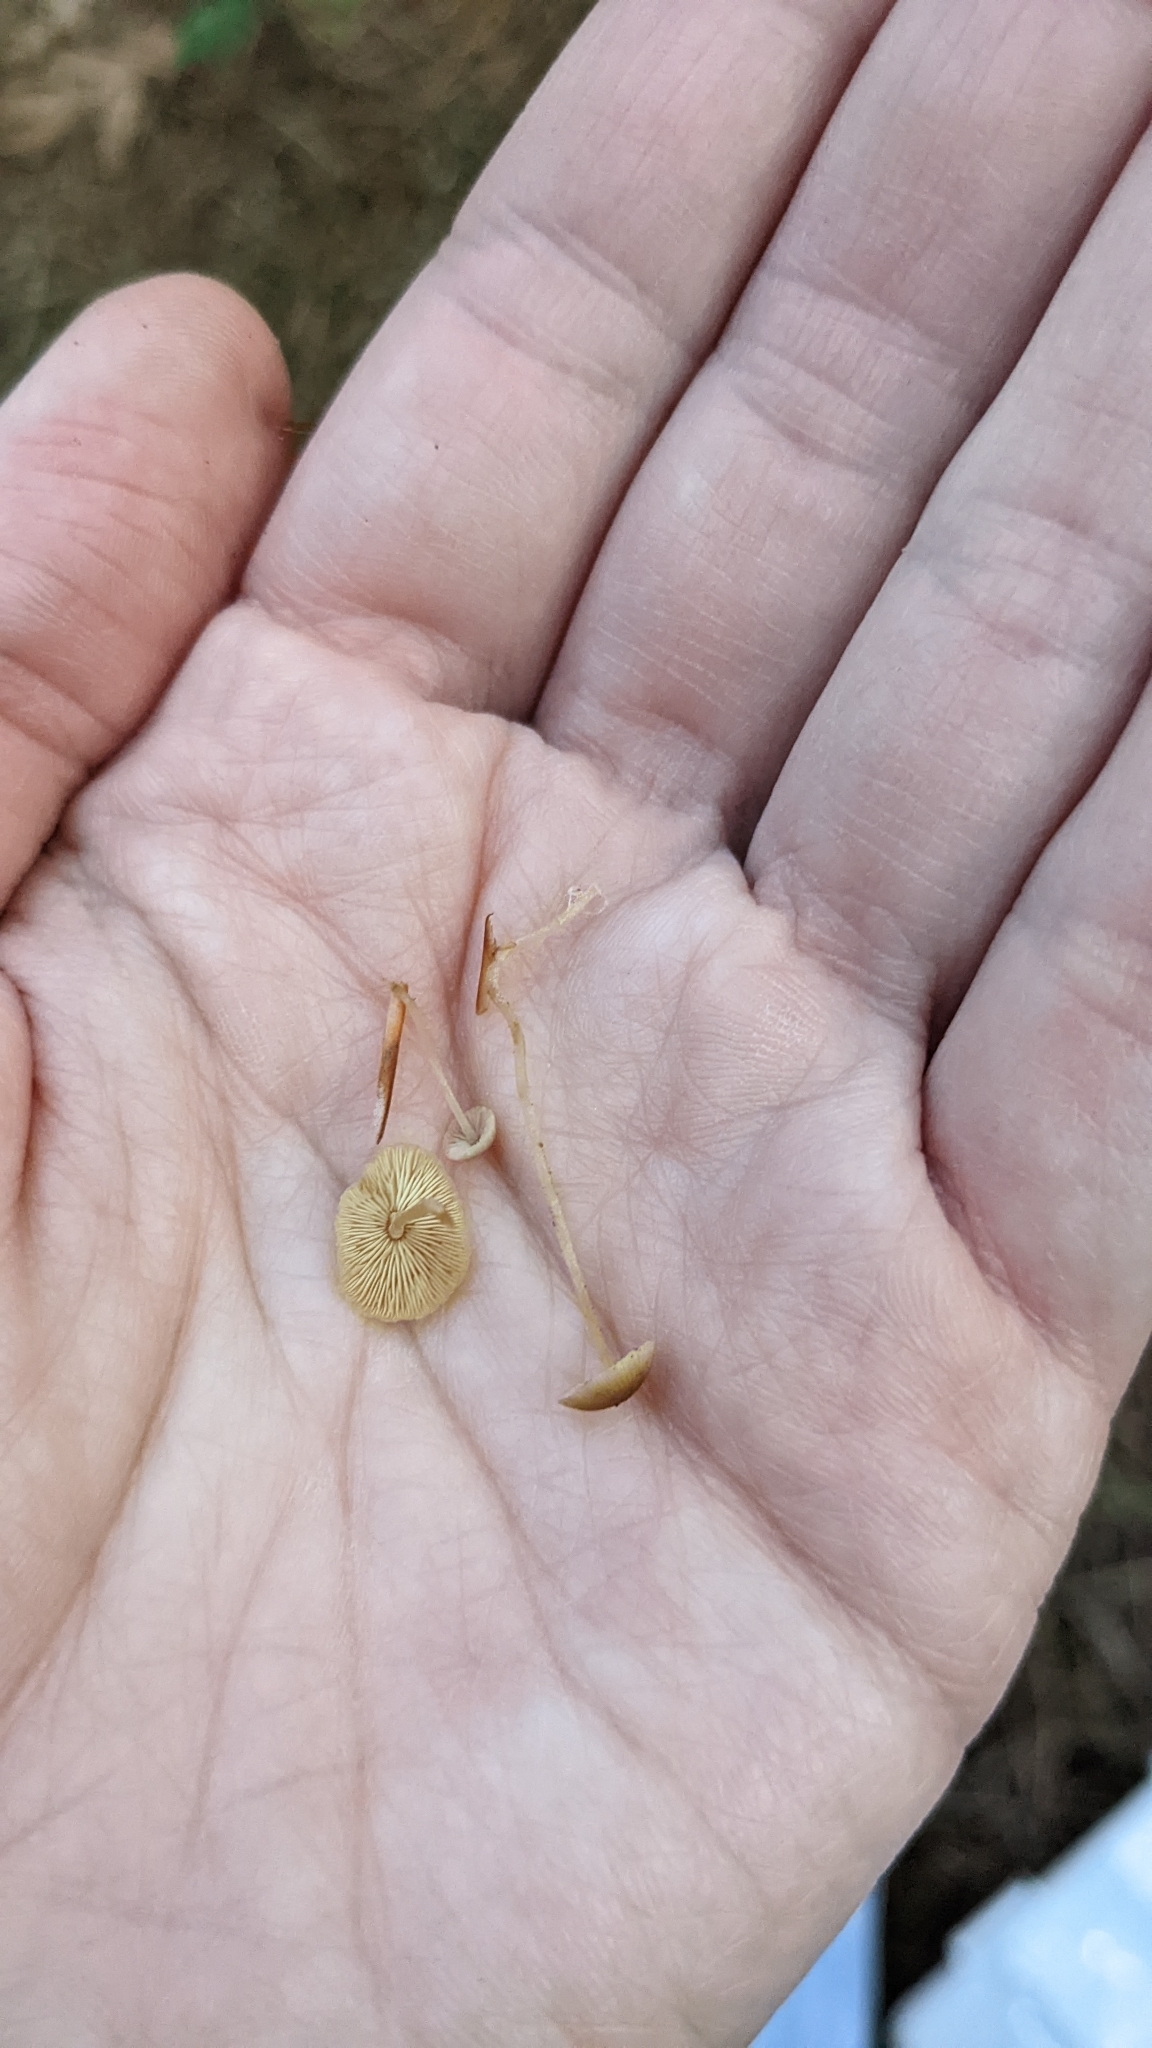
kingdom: Fungi
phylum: Basidiomycota
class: Agaricomycetes
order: Agaricales
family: Marasmiaceae
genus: Baeospora
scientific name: Baeospora myosura
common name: Conifercone cap
